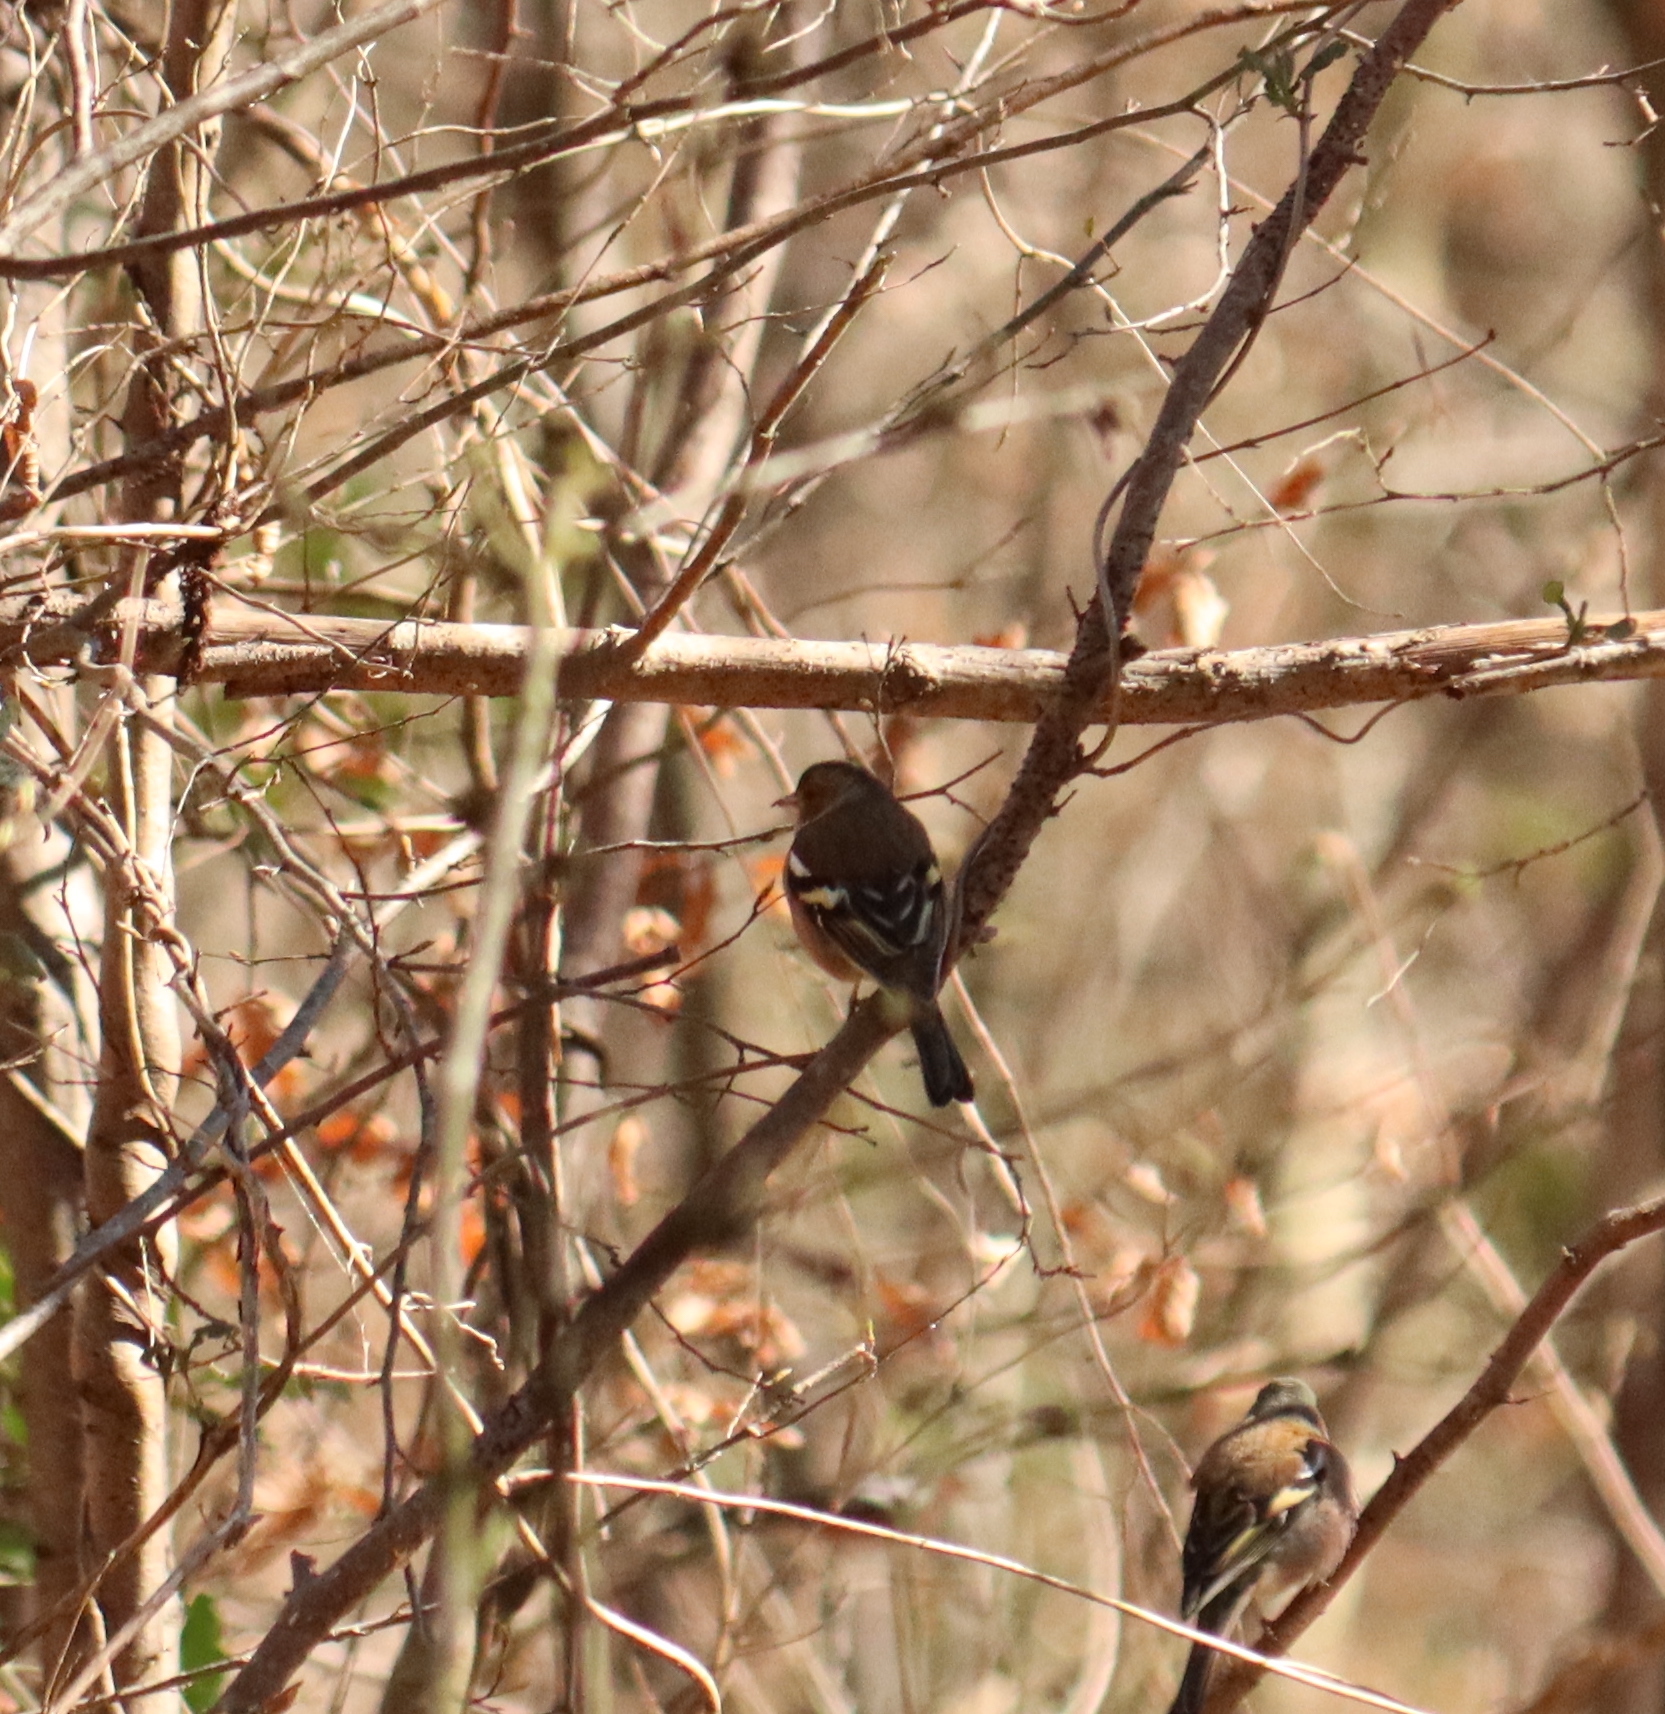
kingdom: Animalia
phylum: Chordata
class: Aves
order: Passeriformes
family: Fringillidae
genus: Fringilla
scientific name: Fringilla coelebs
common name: Common chaffinch
